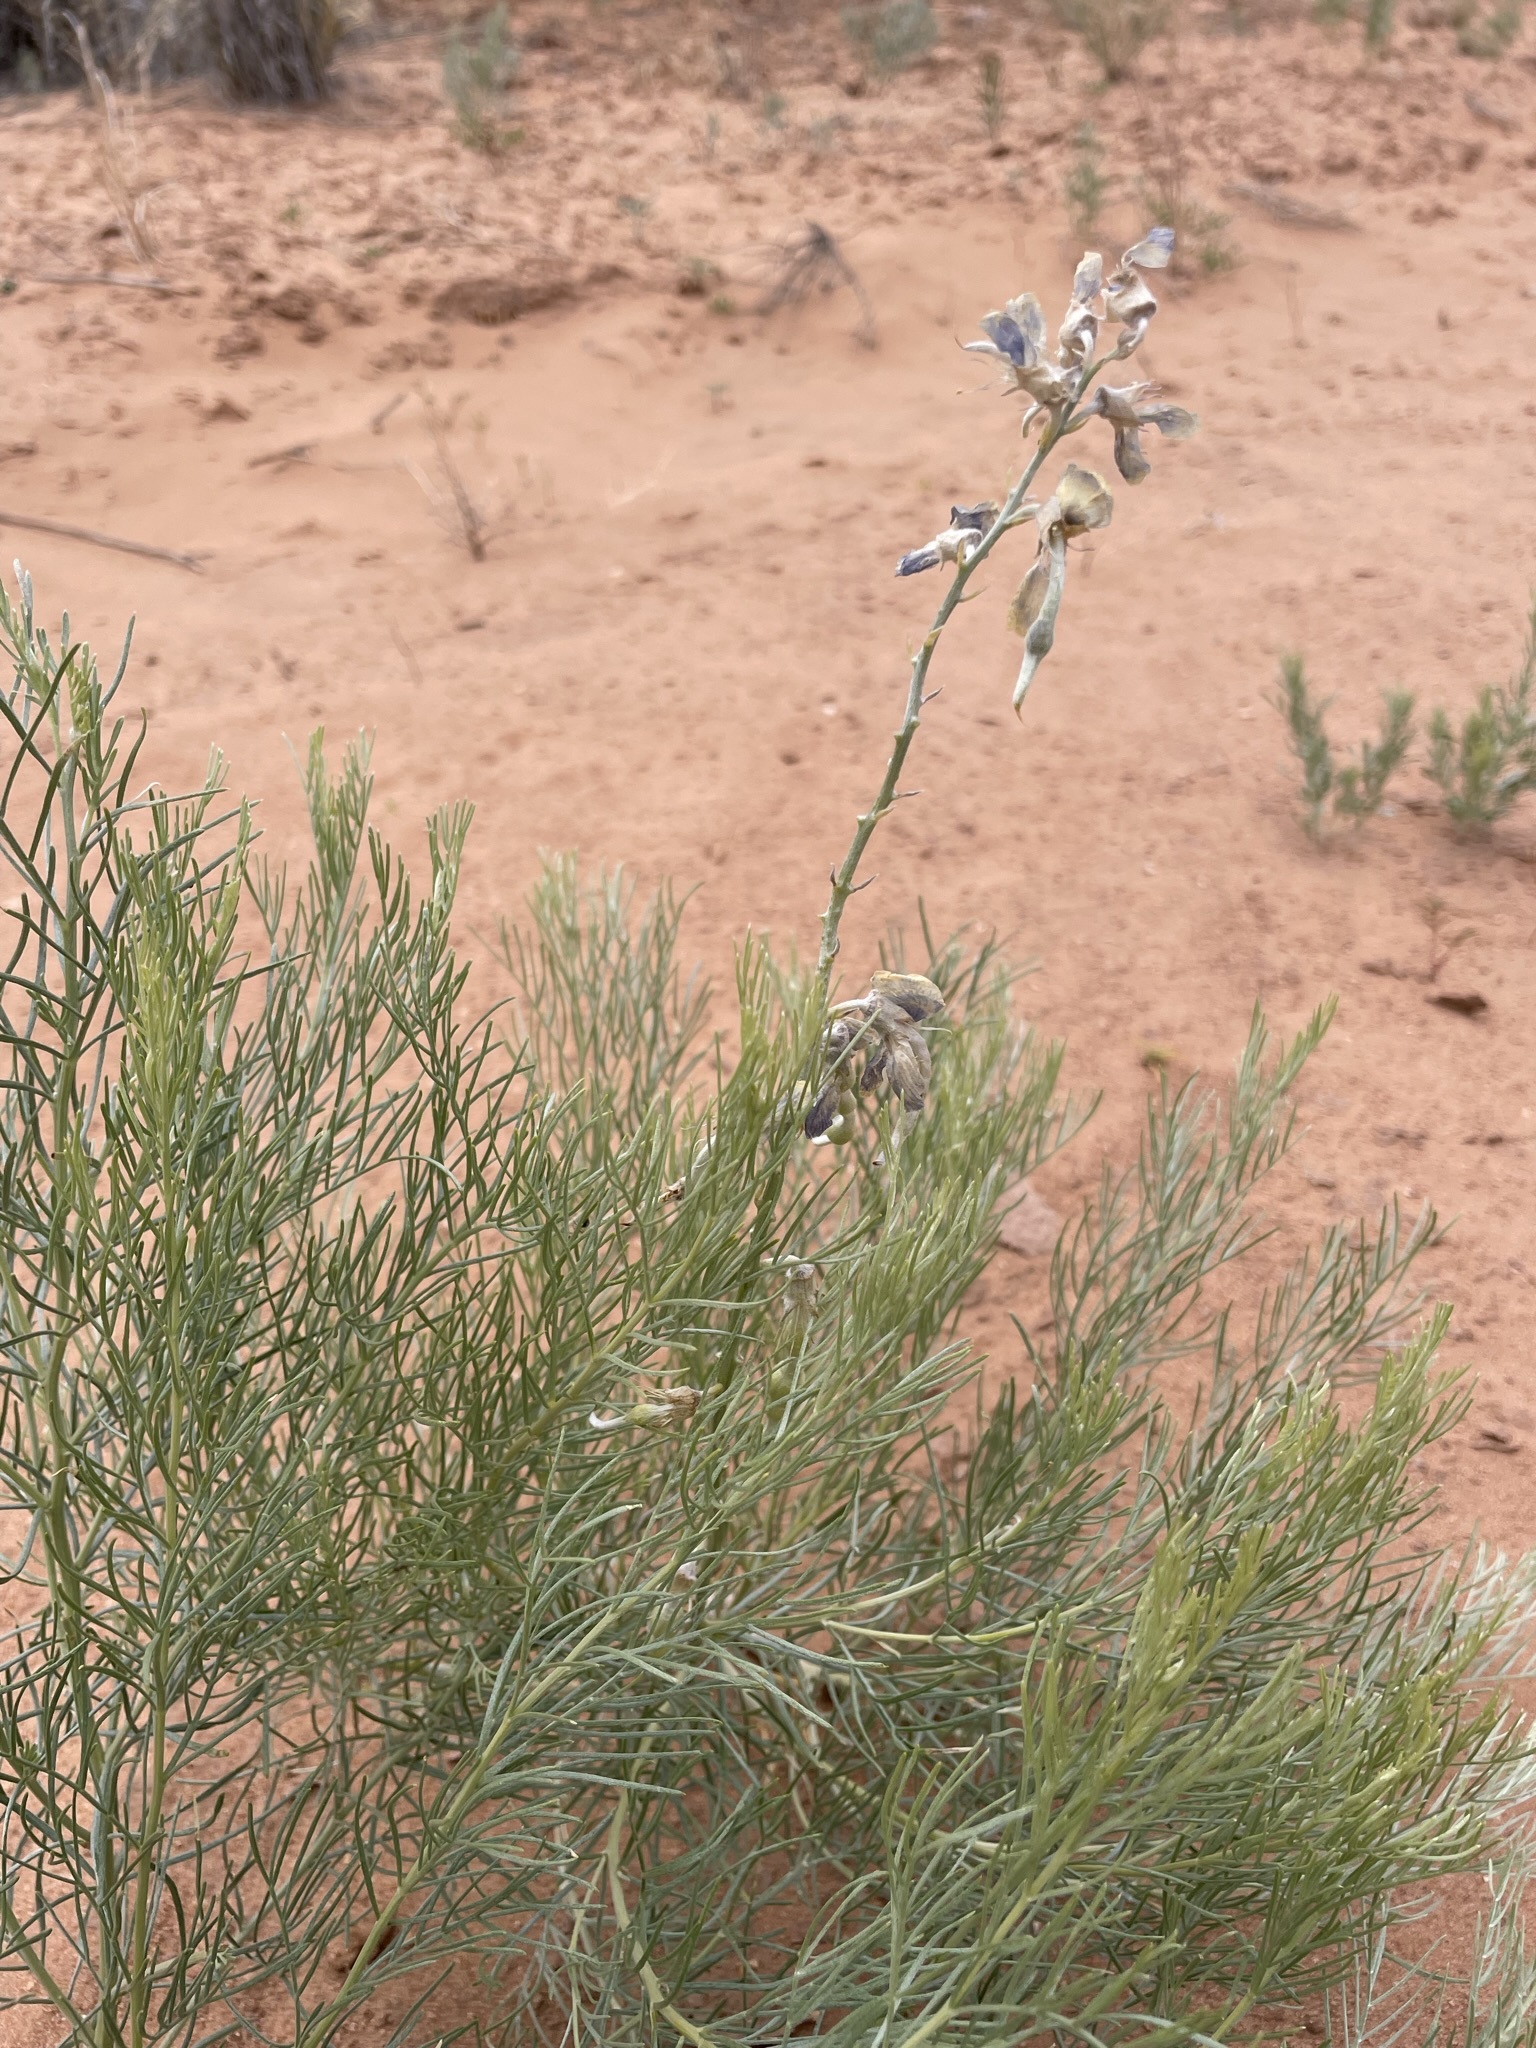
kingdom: Plantae
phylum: Tracheophyta
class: Magnoliopsida
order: Fabales
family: Fabaceae
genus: Sophora
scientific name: Sophora stenophylla
